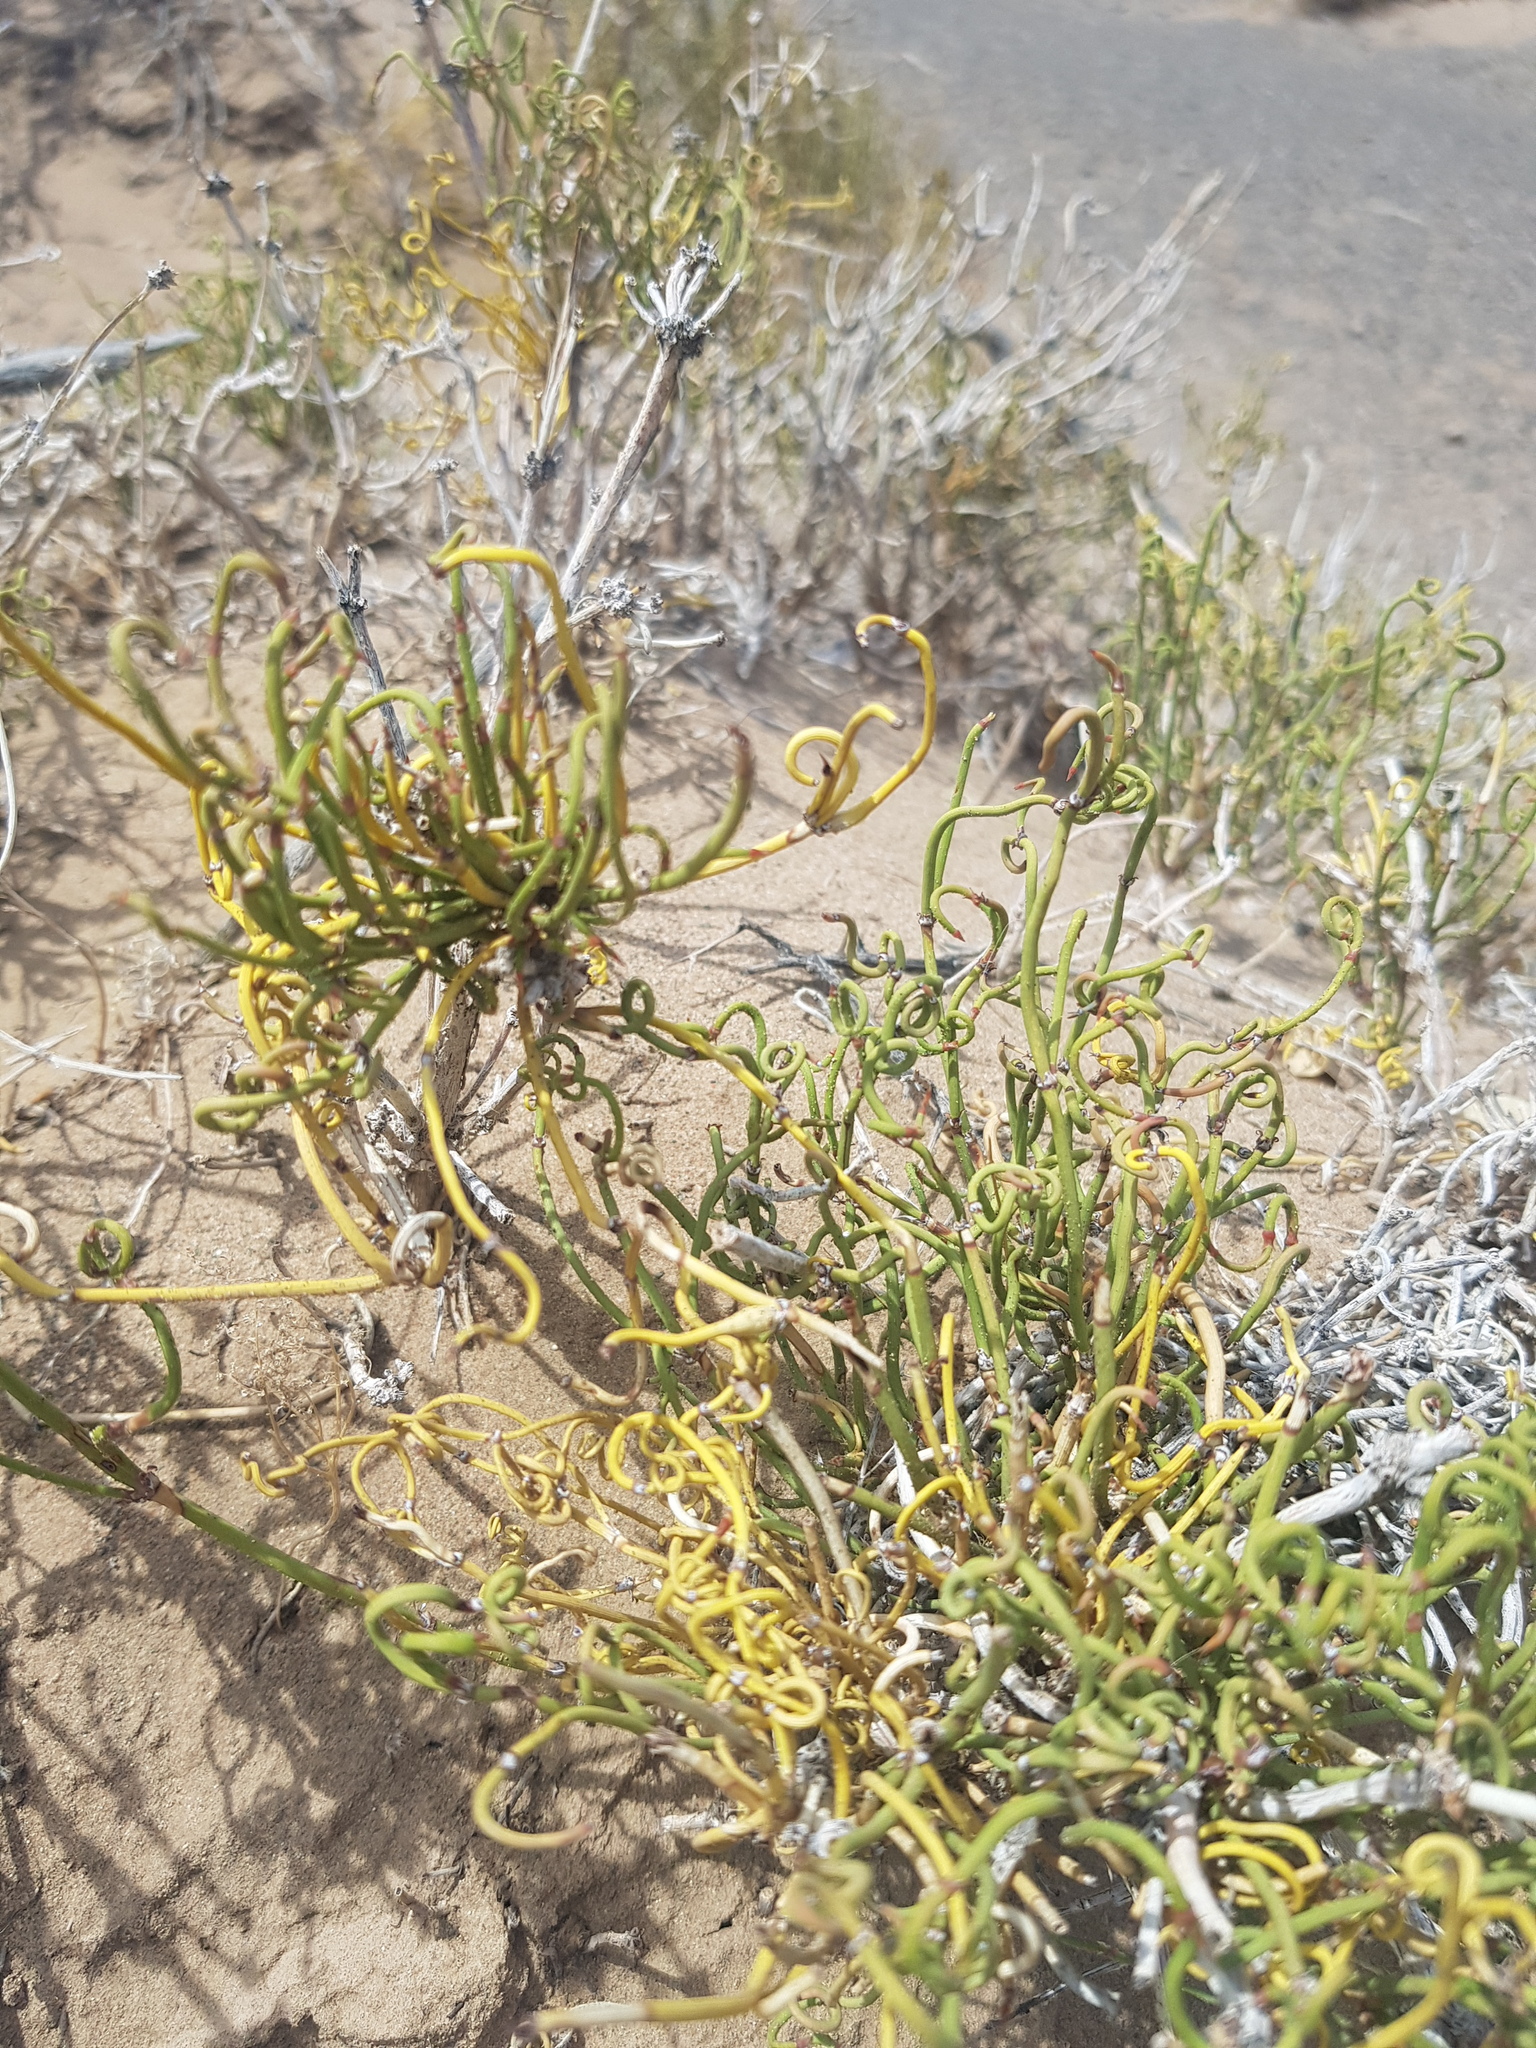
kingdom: Plantae
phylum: Tracheophyta
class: Gnetopsida
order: Ephedrales
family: Ephedraceae
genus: Ephedra
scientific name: Ephedra przewalskii
